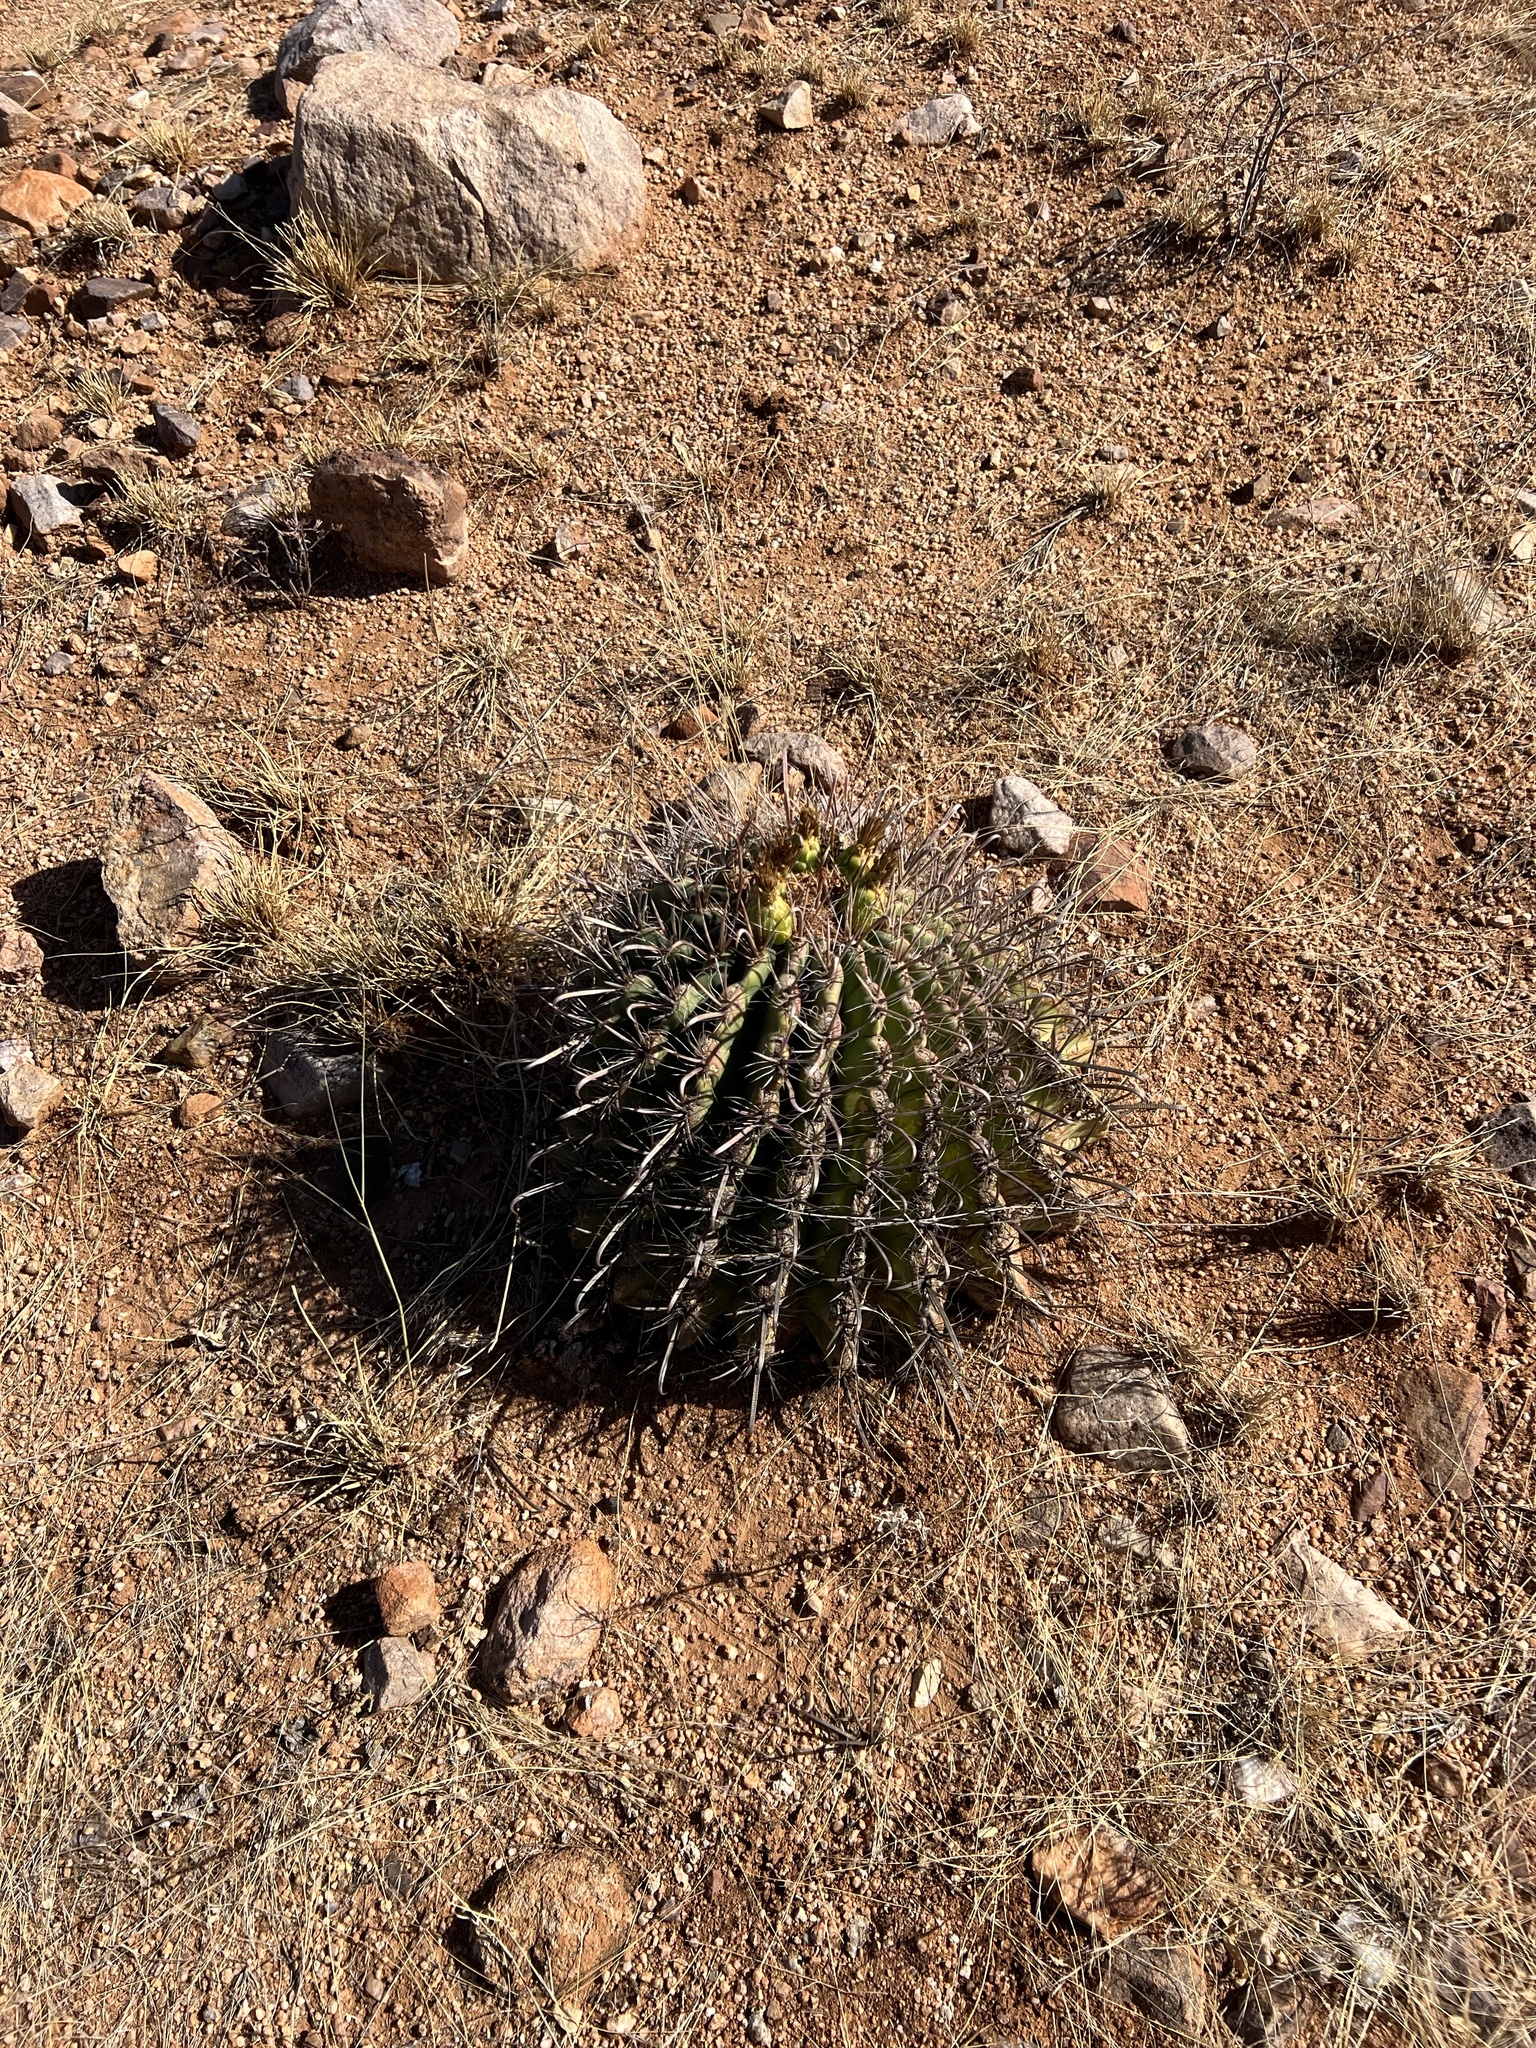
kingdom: Plantae
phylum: Tracheophyta
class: Magnoliopsida
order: Caryophyllales
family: Cactaceae
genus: Ferocactus
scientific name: Ferocactus wislizeni
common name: Candy barrel cactus
